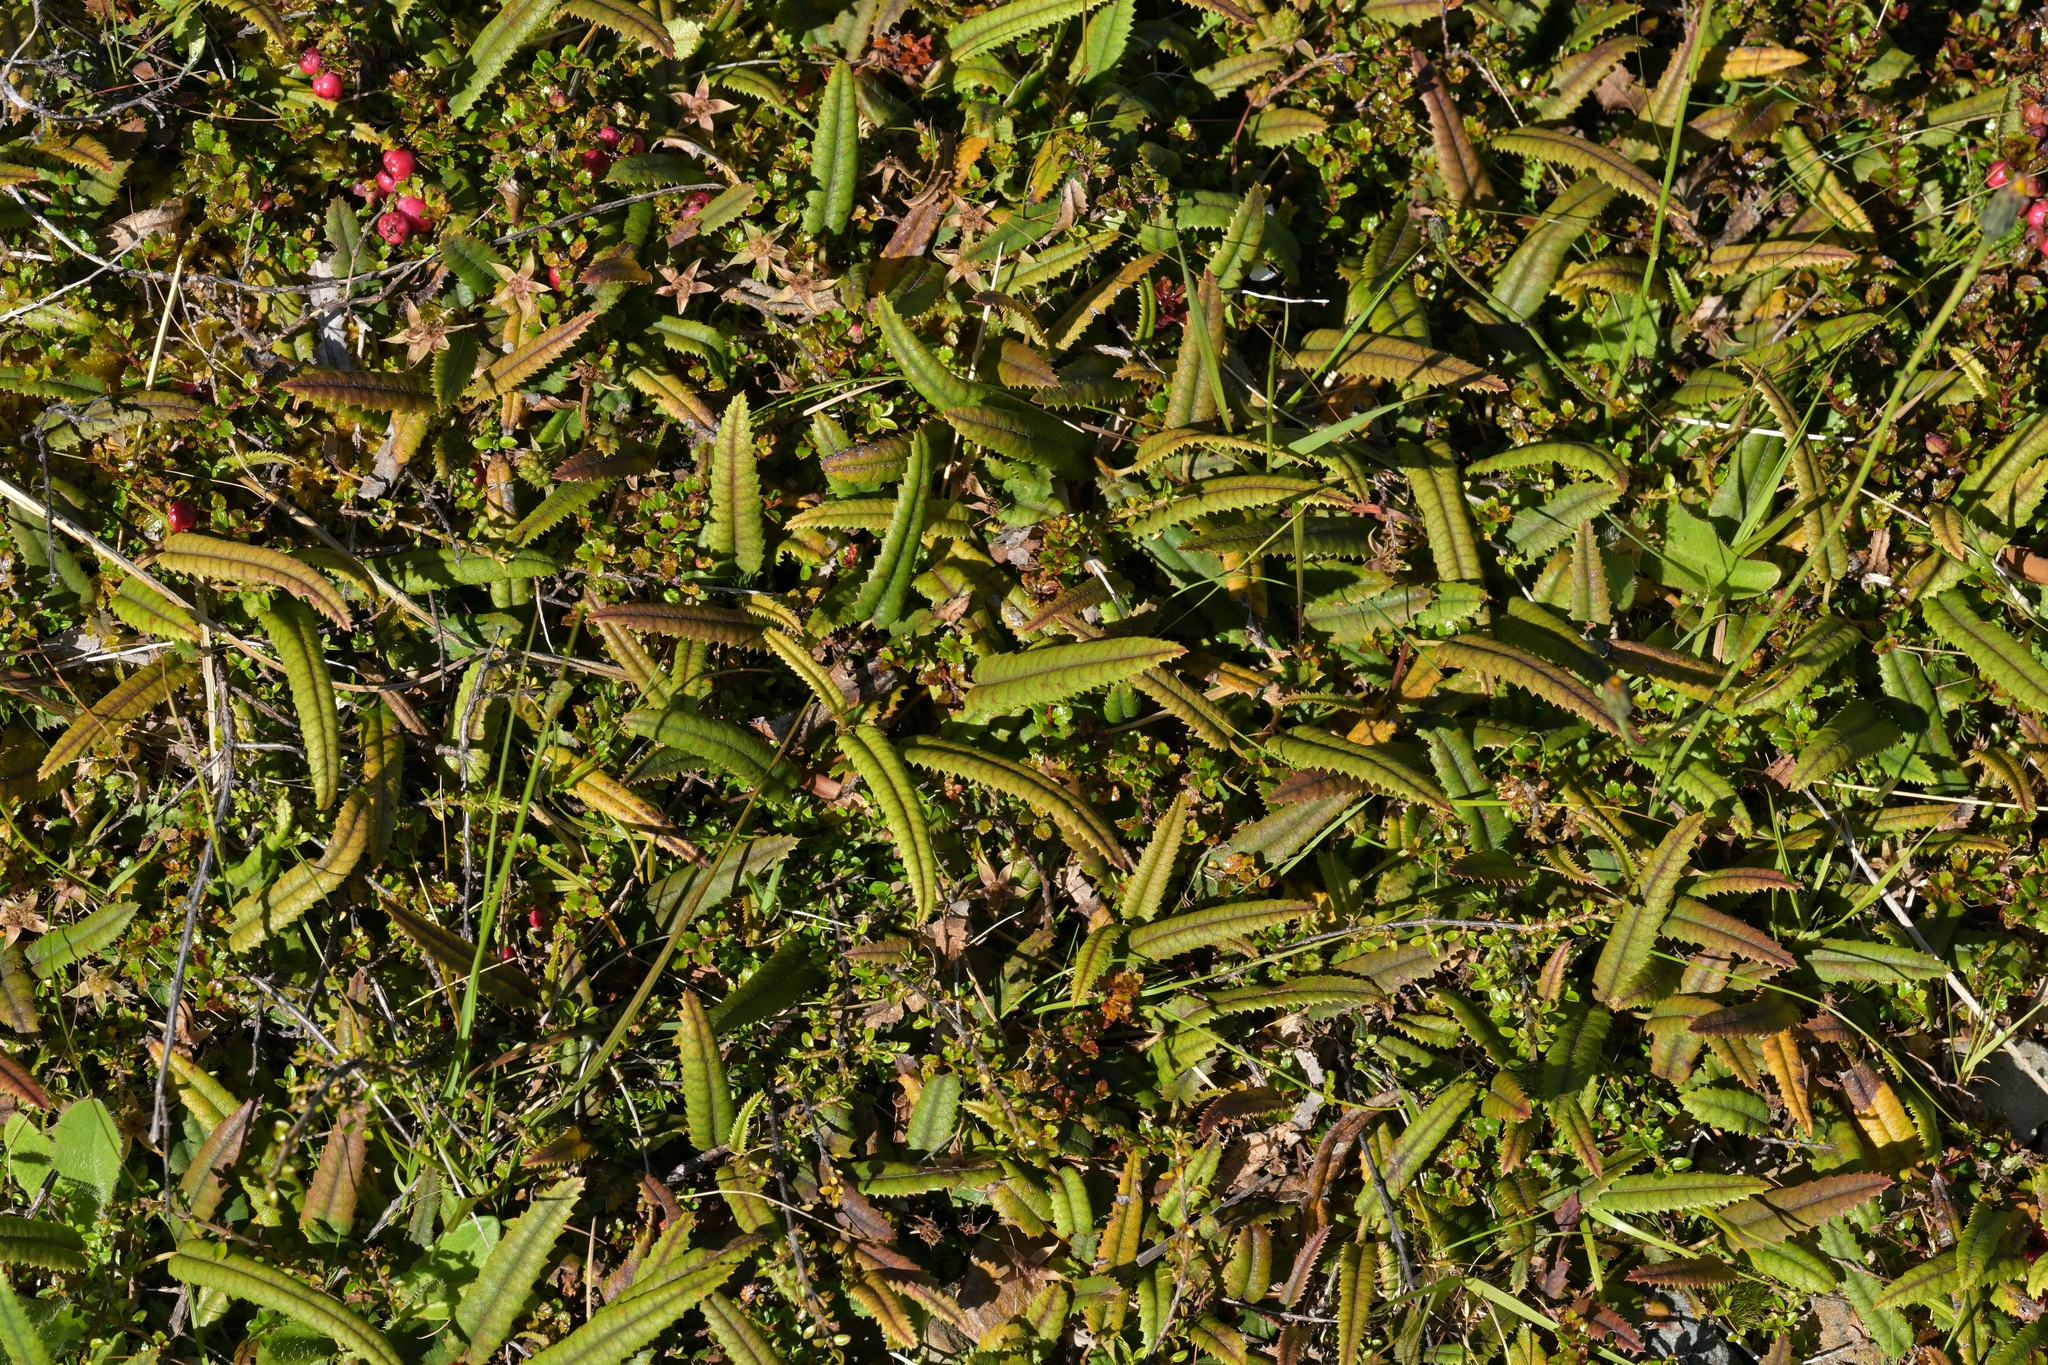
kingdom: Plantae
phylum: Tracheophyta
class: Magnoliopsida
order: Rosales
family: Rosaceae
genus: Rubus
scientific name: Rubus parvus
